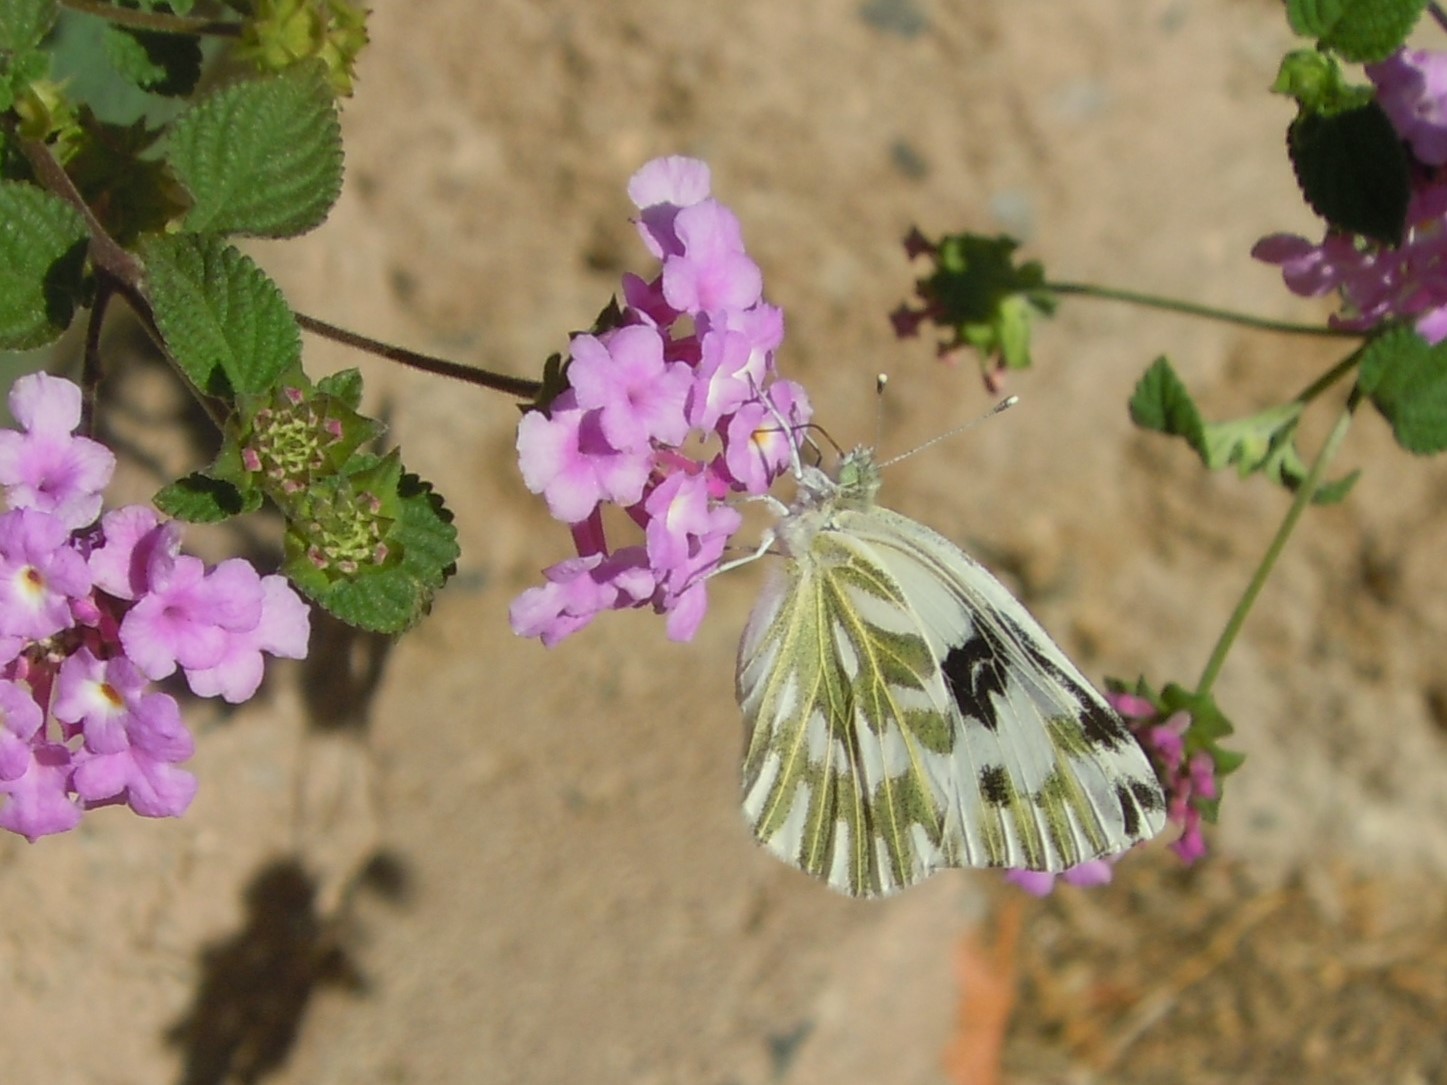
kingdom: Animalia
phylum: Arthropoda
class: Insecta
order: Lepidoptera
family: Pieridae
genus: Pontia
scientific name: Pontia beckerii
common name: Becker's white
